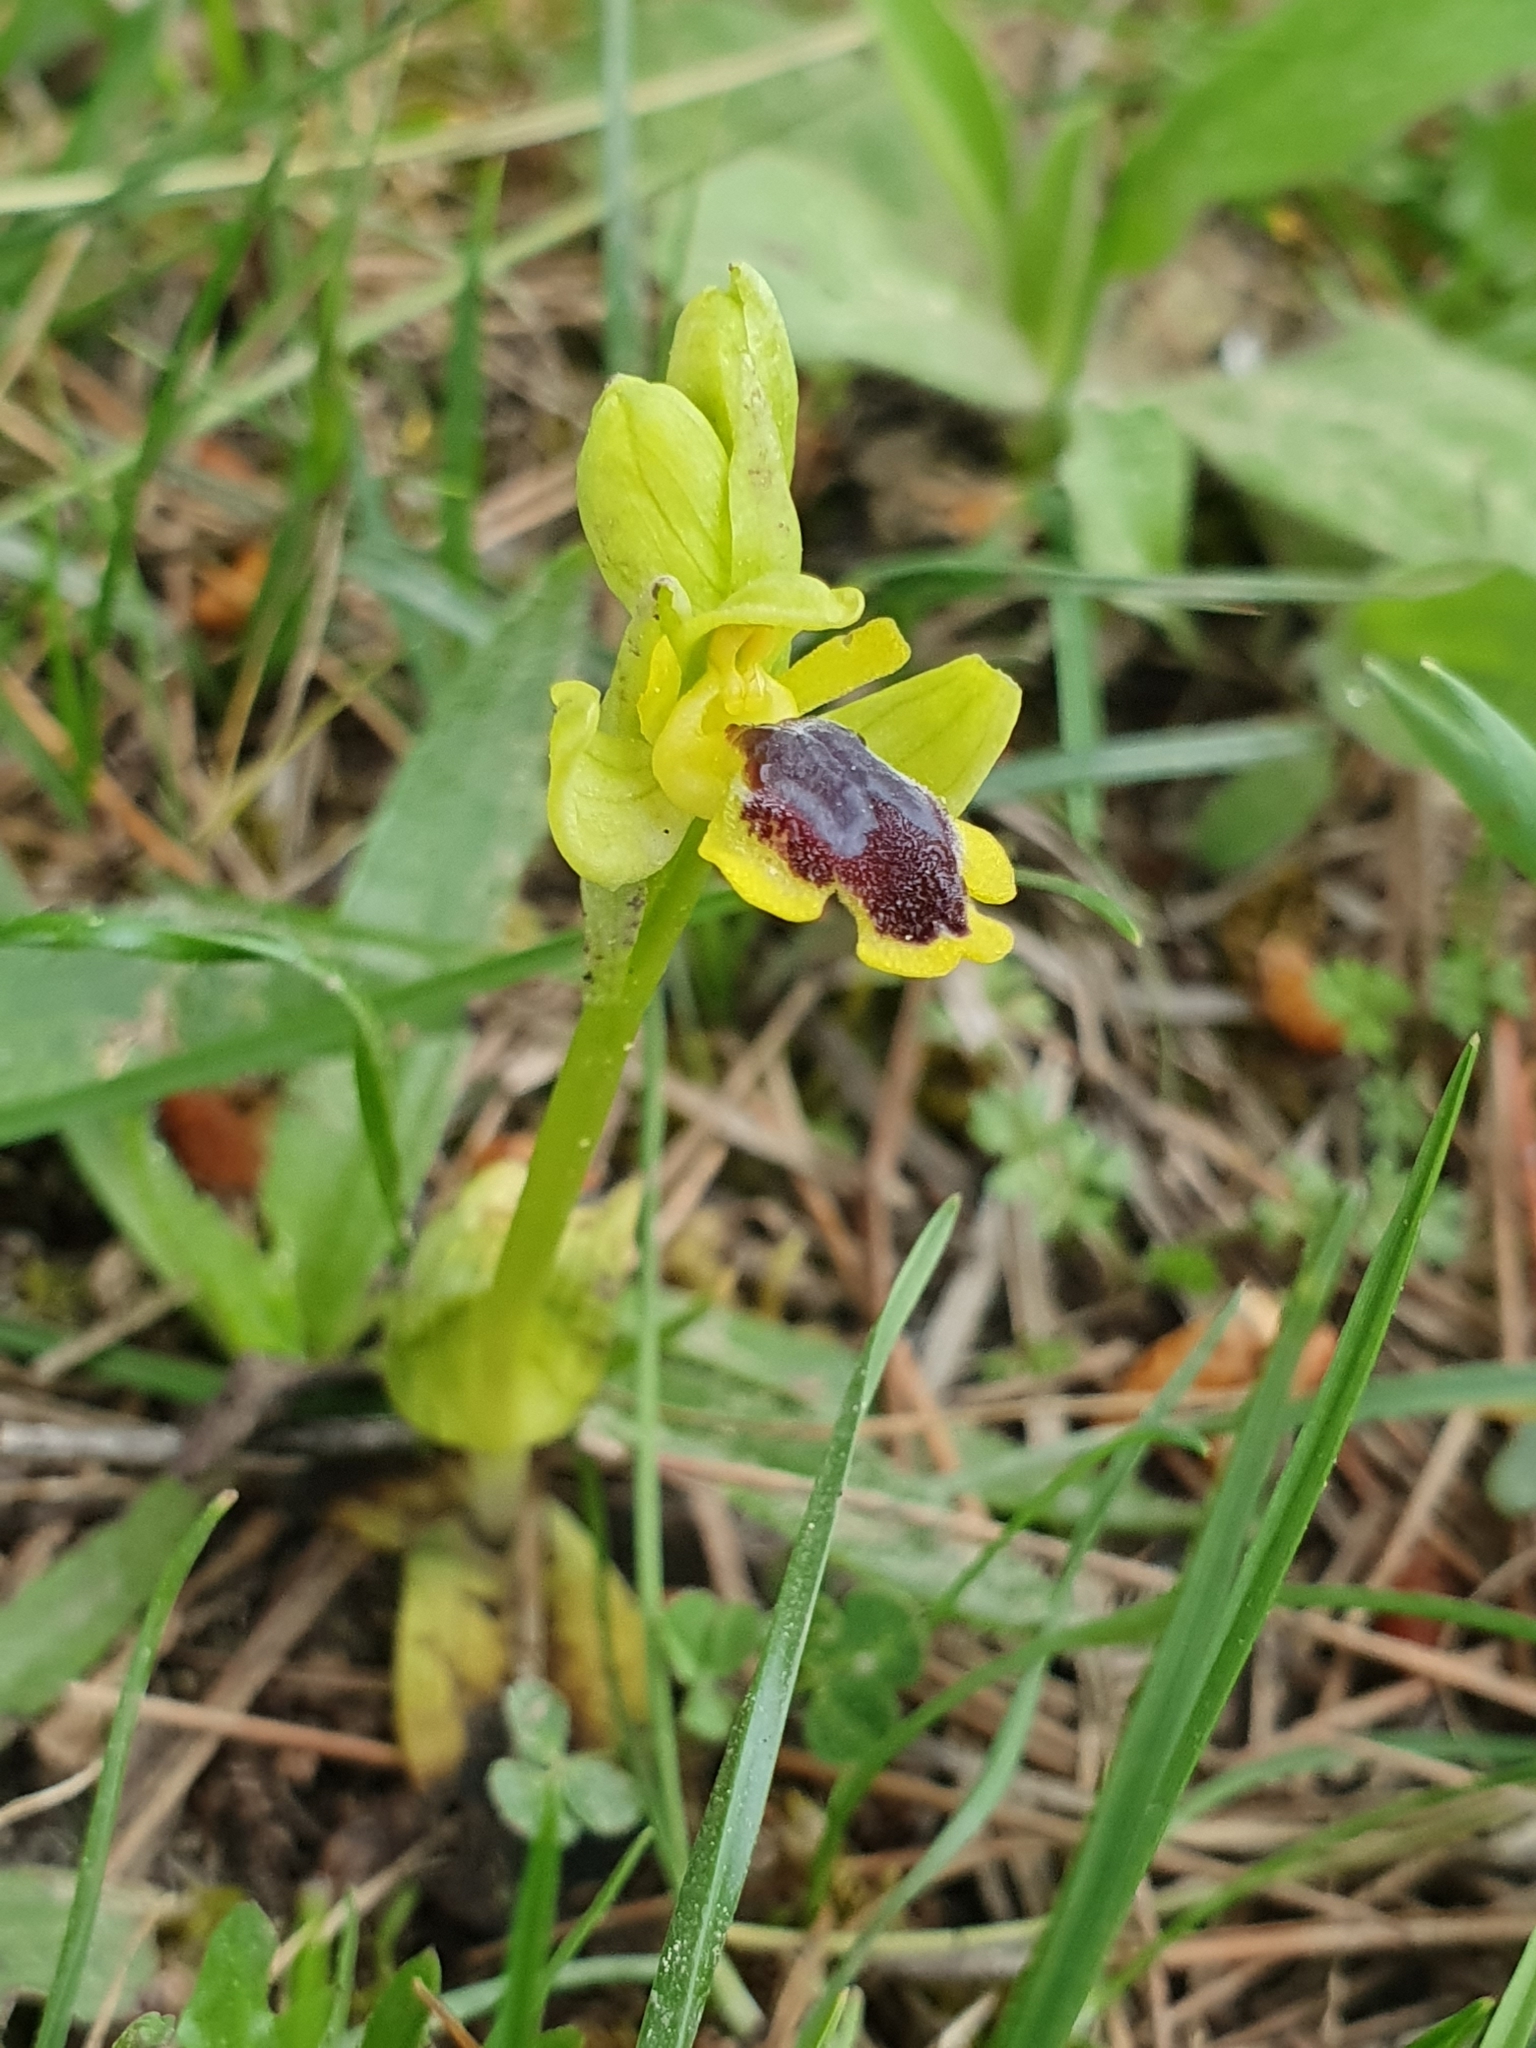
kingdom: Plantae
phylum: Tracheophyta
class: Liliopsida
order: Asparagales
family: Orchidaceae
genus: Ophrys
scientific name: Ophrys battandieri
